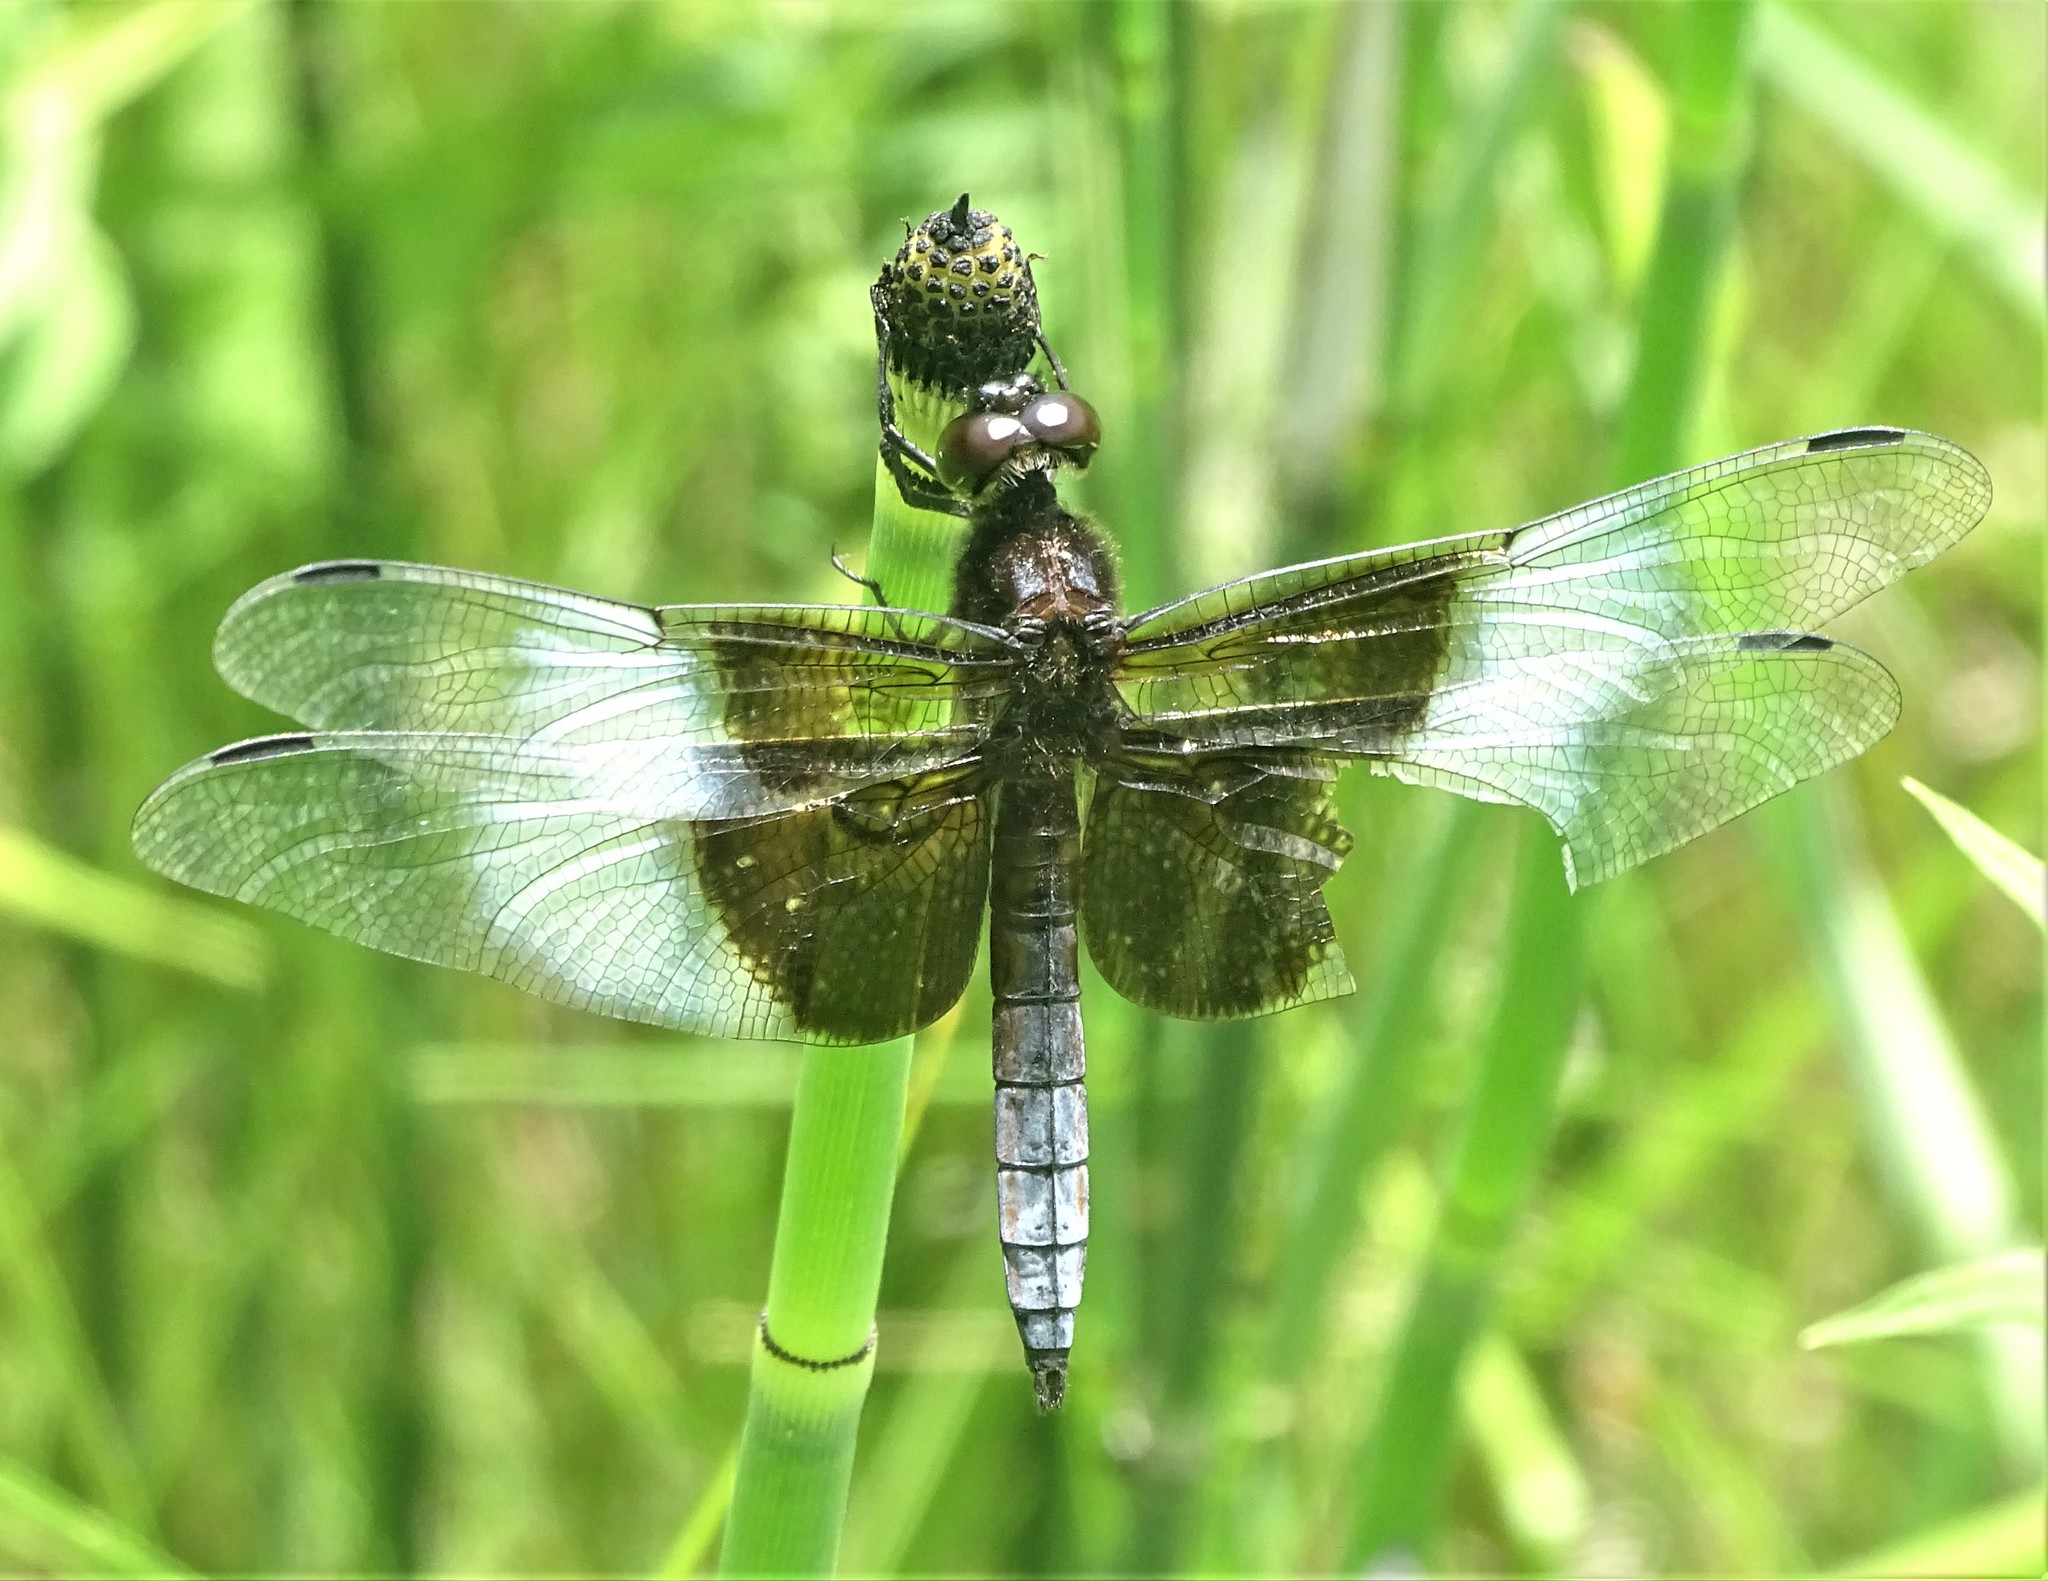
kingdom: Animalia
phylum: Arthropoda
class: Insecta
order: Odonata
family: Libellulidae
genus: Libellula
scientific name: Libellula luctuosa
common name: Widow skimmer
